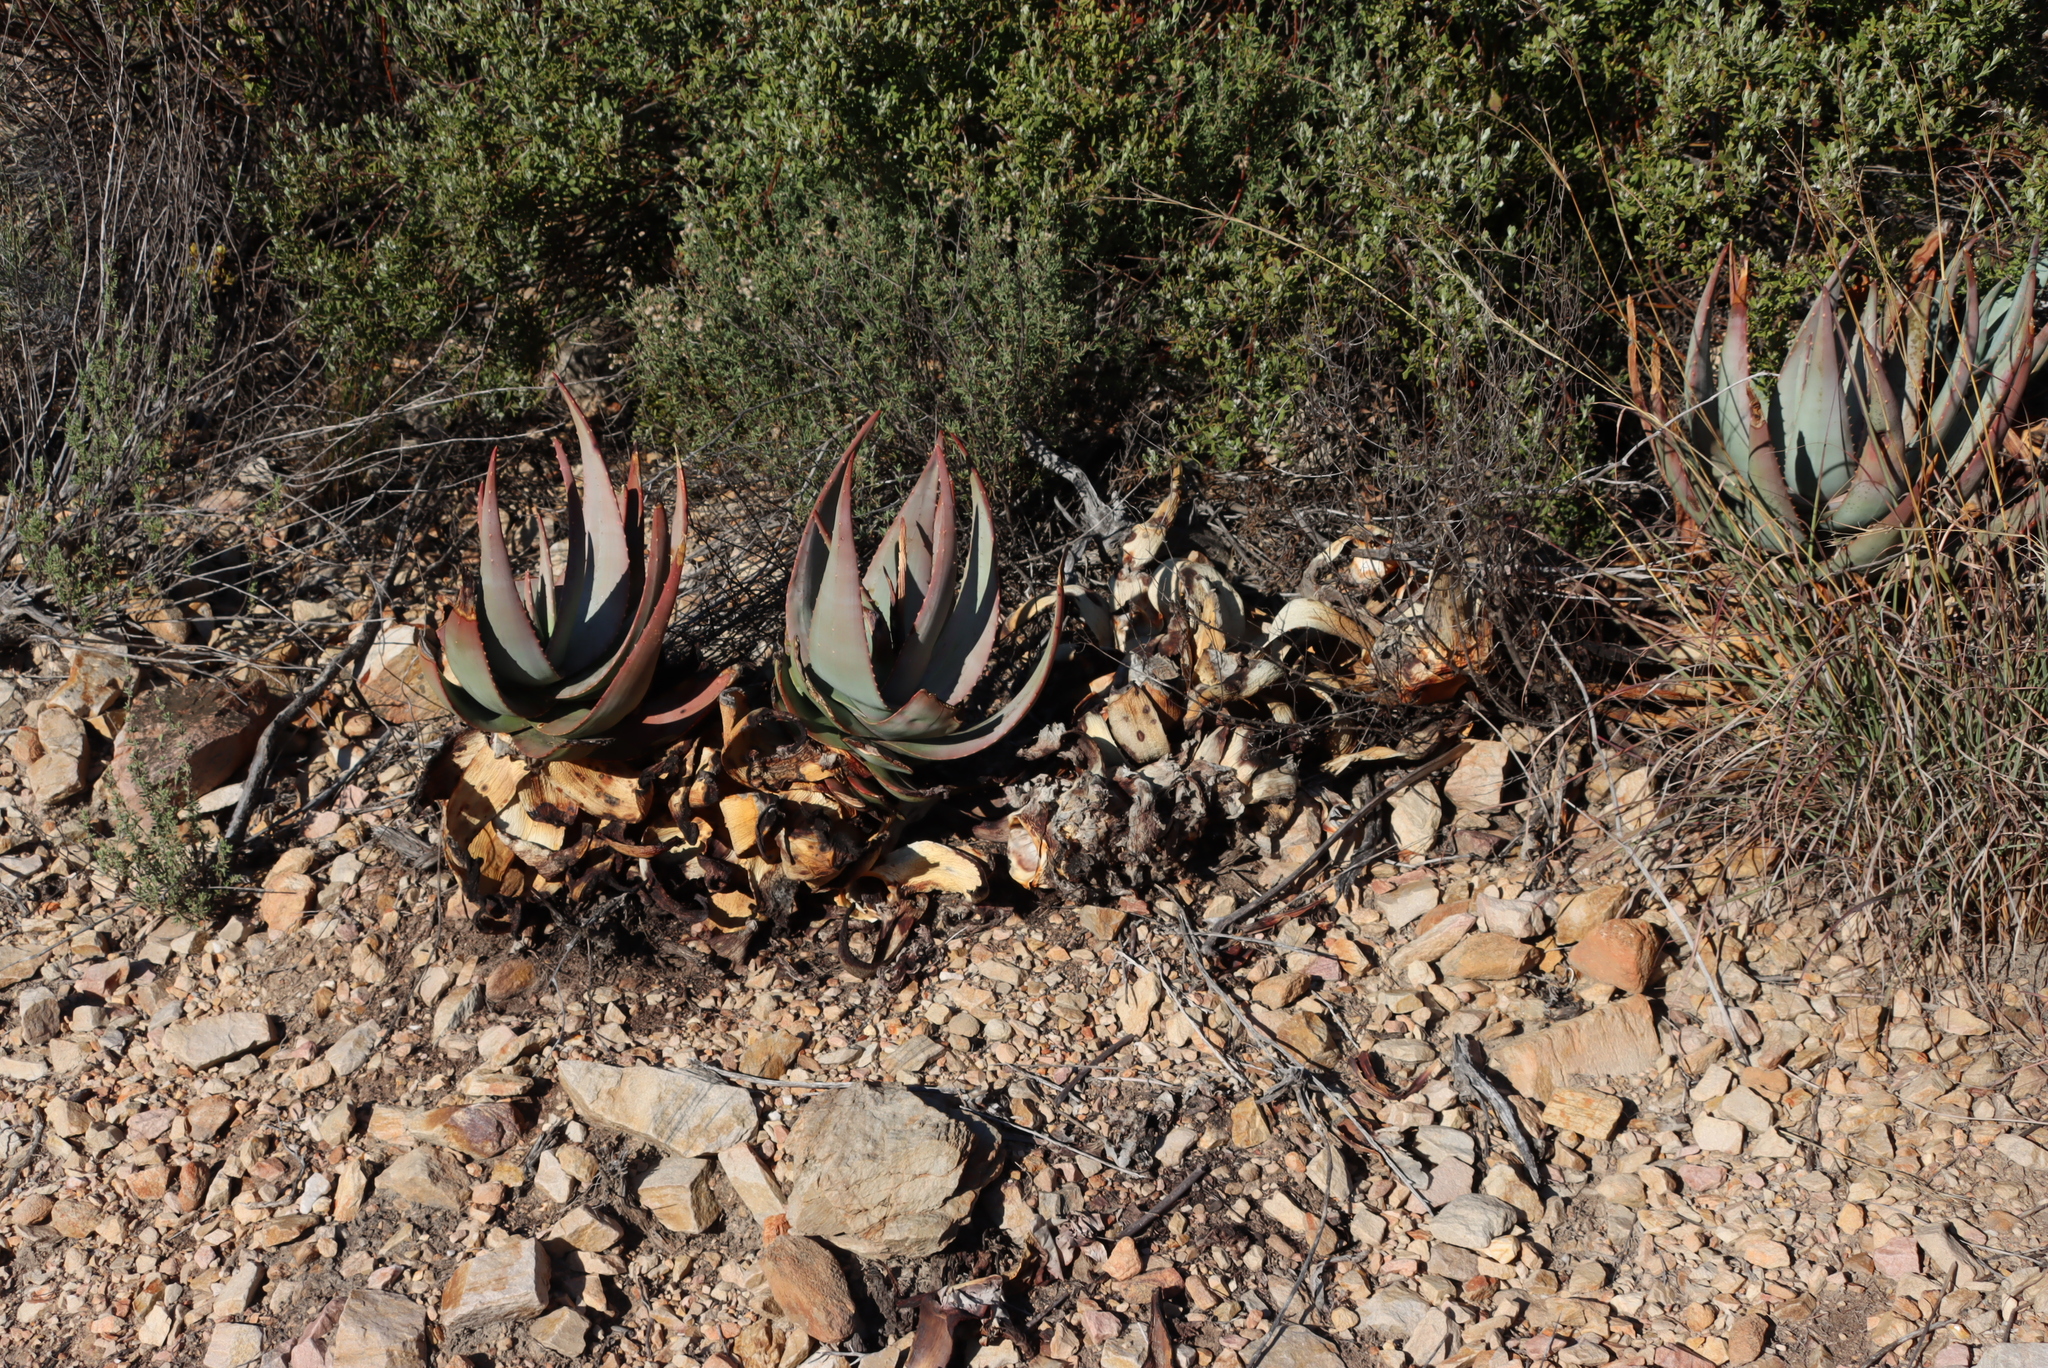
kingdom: Plantae
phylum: Tracheophyta
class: Liliopsida
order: Asparagales
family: Asphodelaceae
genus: Aloe
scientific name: Aloe comptonii
